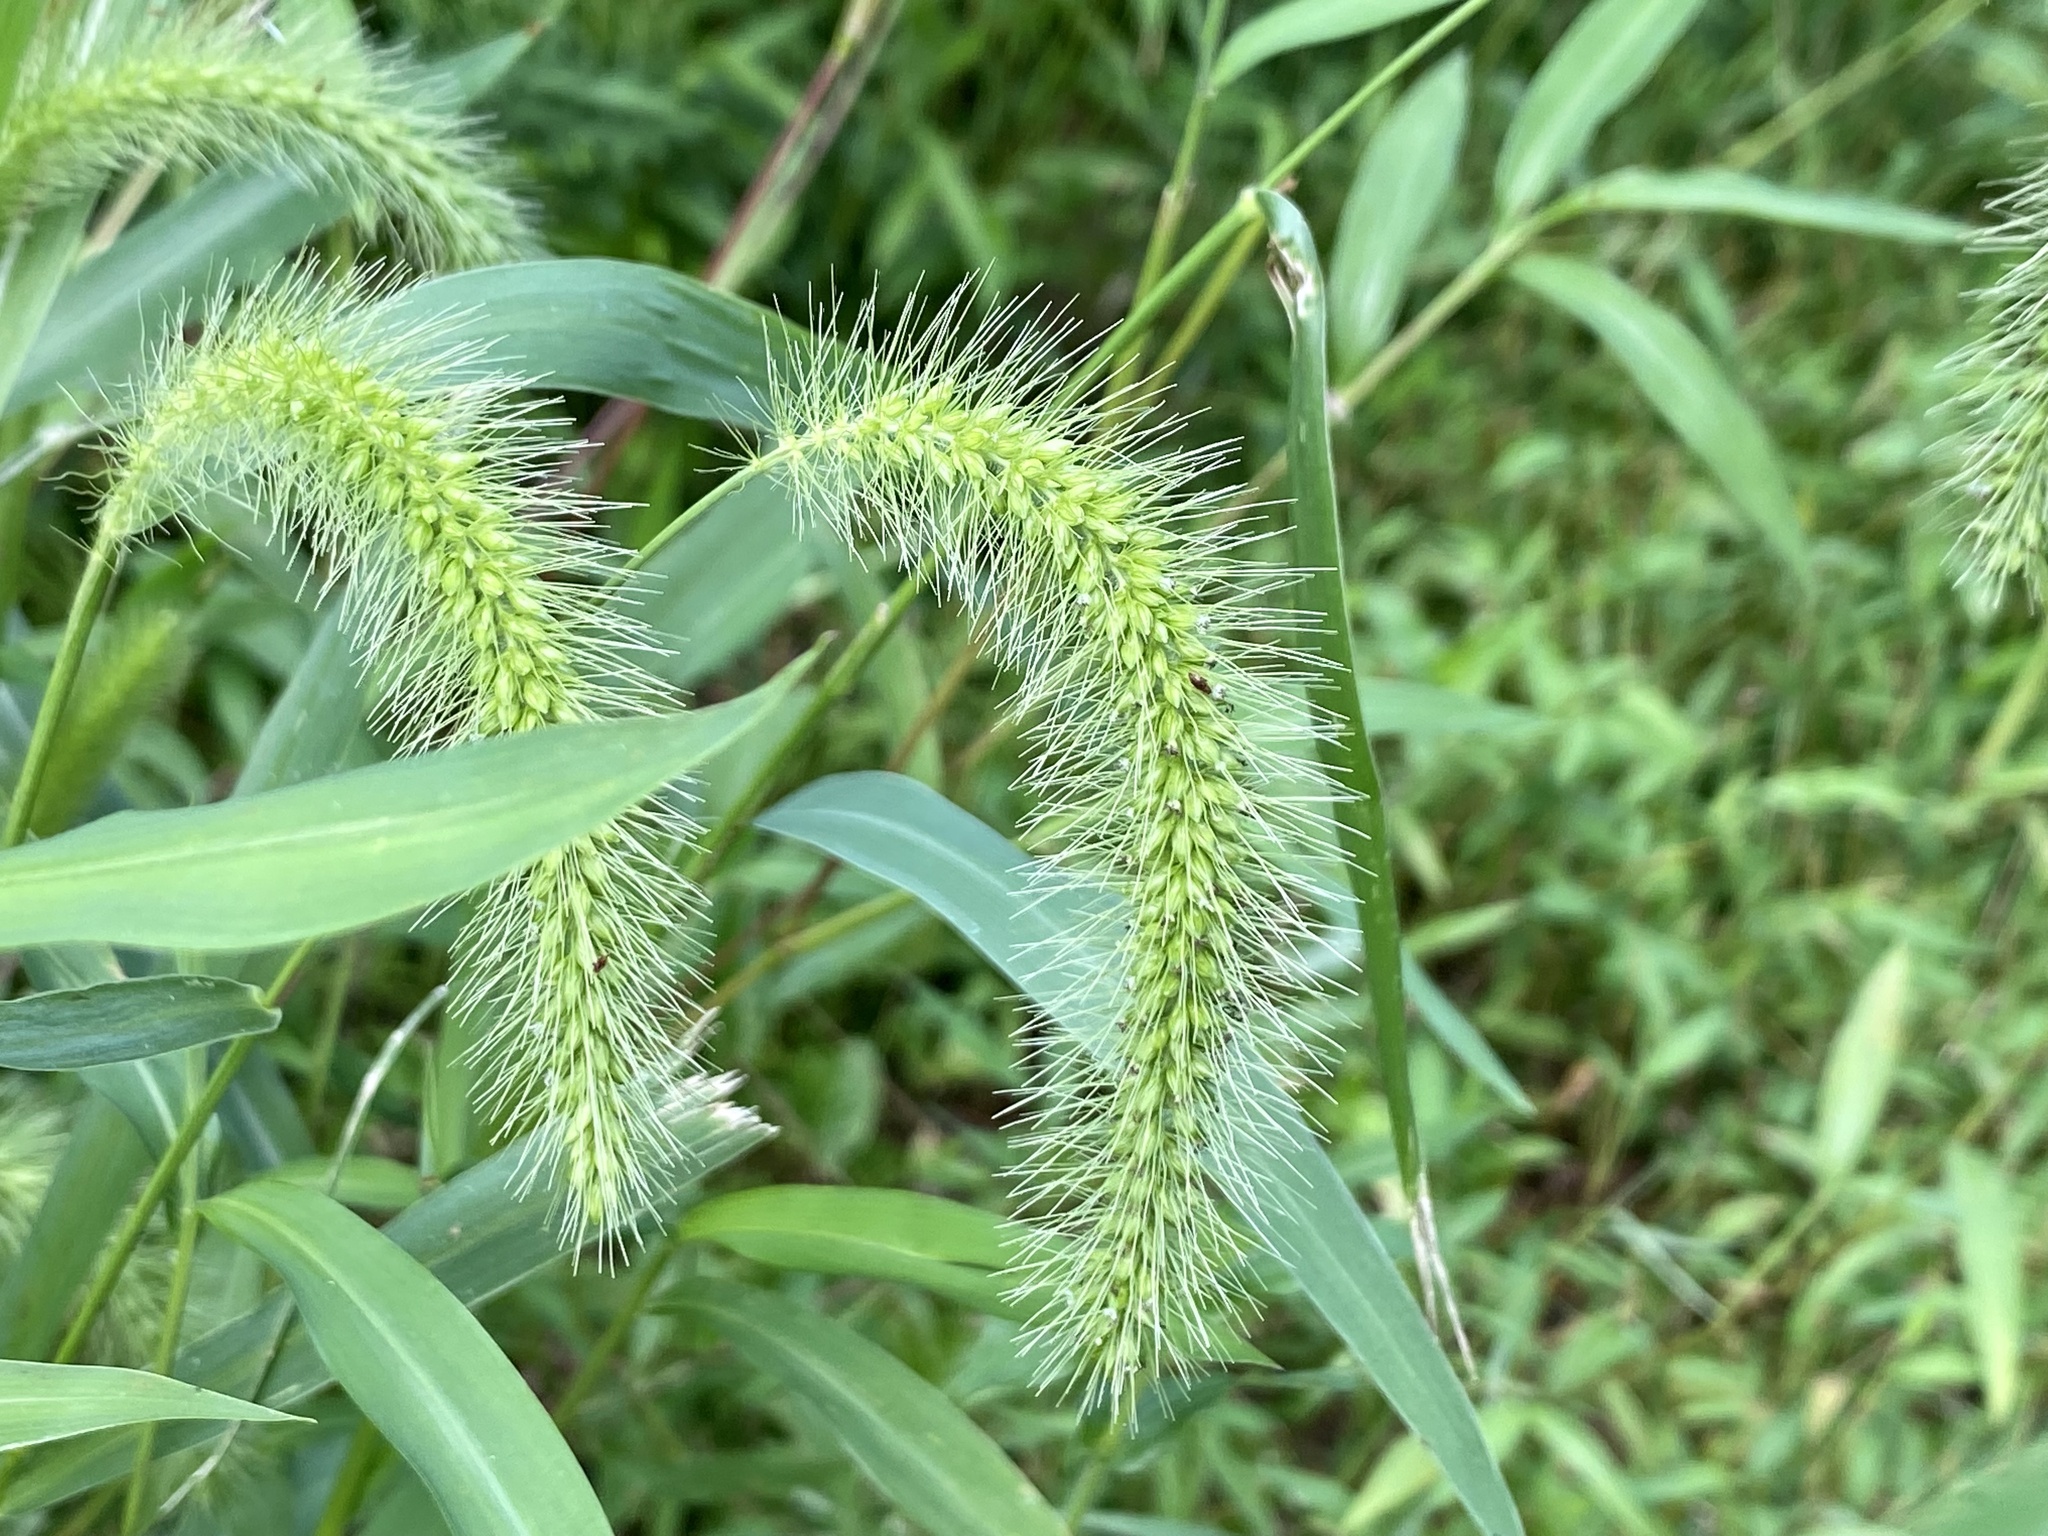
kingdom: Plantae
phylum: Tracheophyta
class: Liliopsida
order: Poales
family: Poaceae
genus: Setaria
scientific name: Setaria faberi
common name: Nodding bristle-grass
